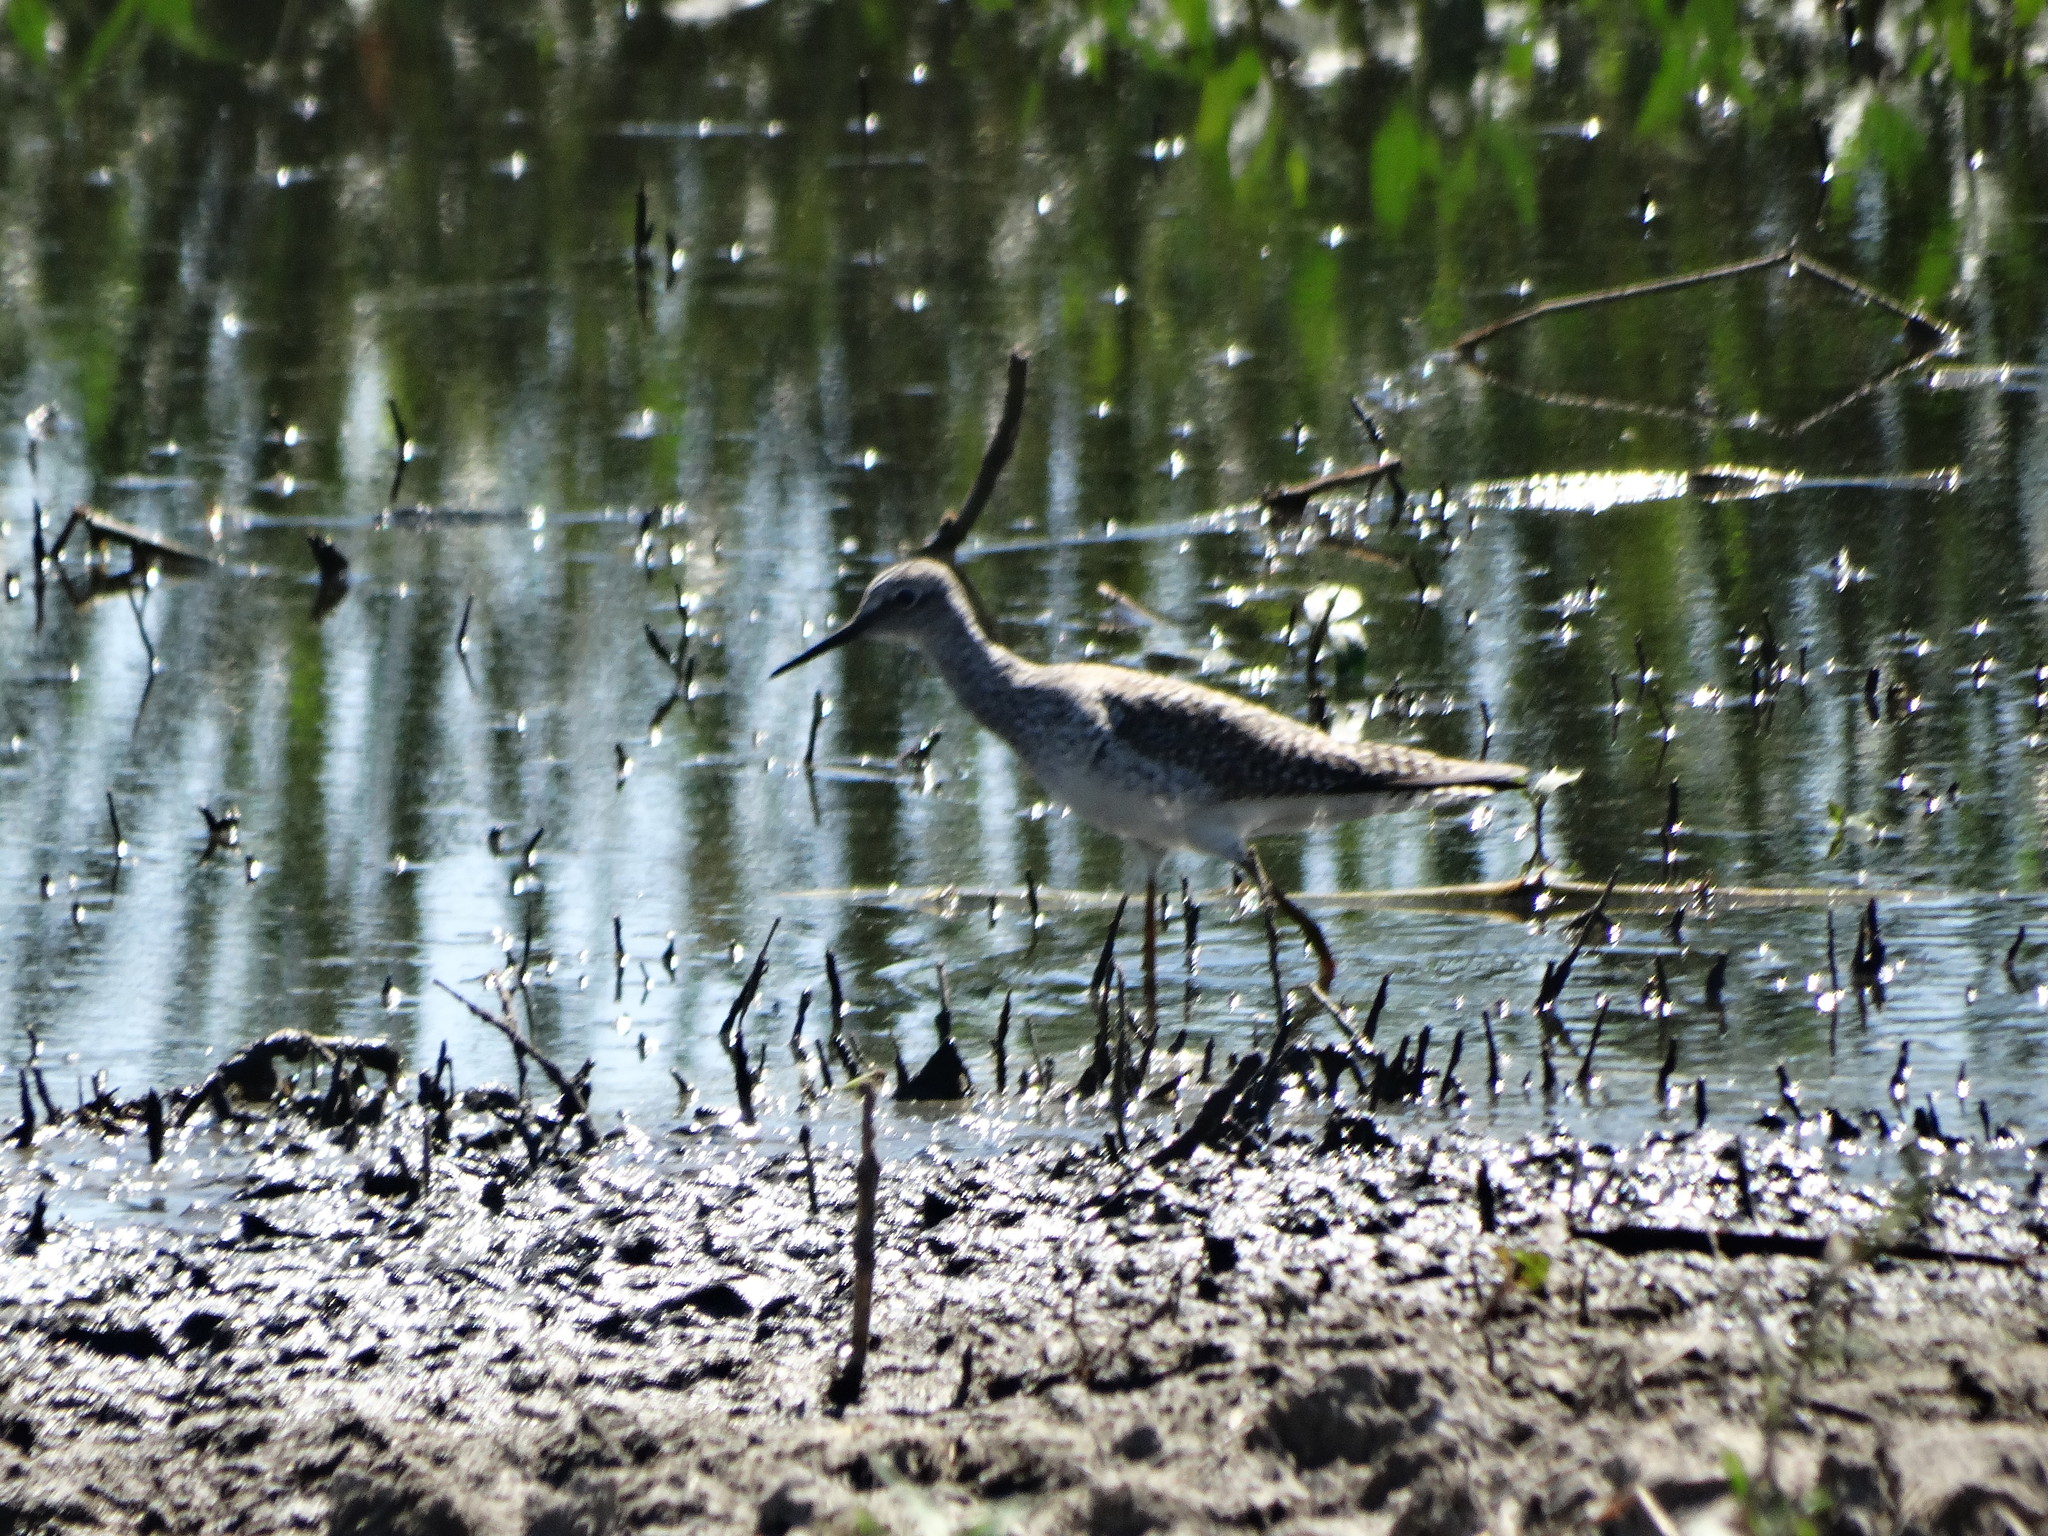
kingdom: Animalia
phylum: Chordata
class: Aves
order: Charadriiformes
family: Scolopacidae
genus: Tringa
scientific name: Tringa solitaria
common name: Solitary sandpiper
